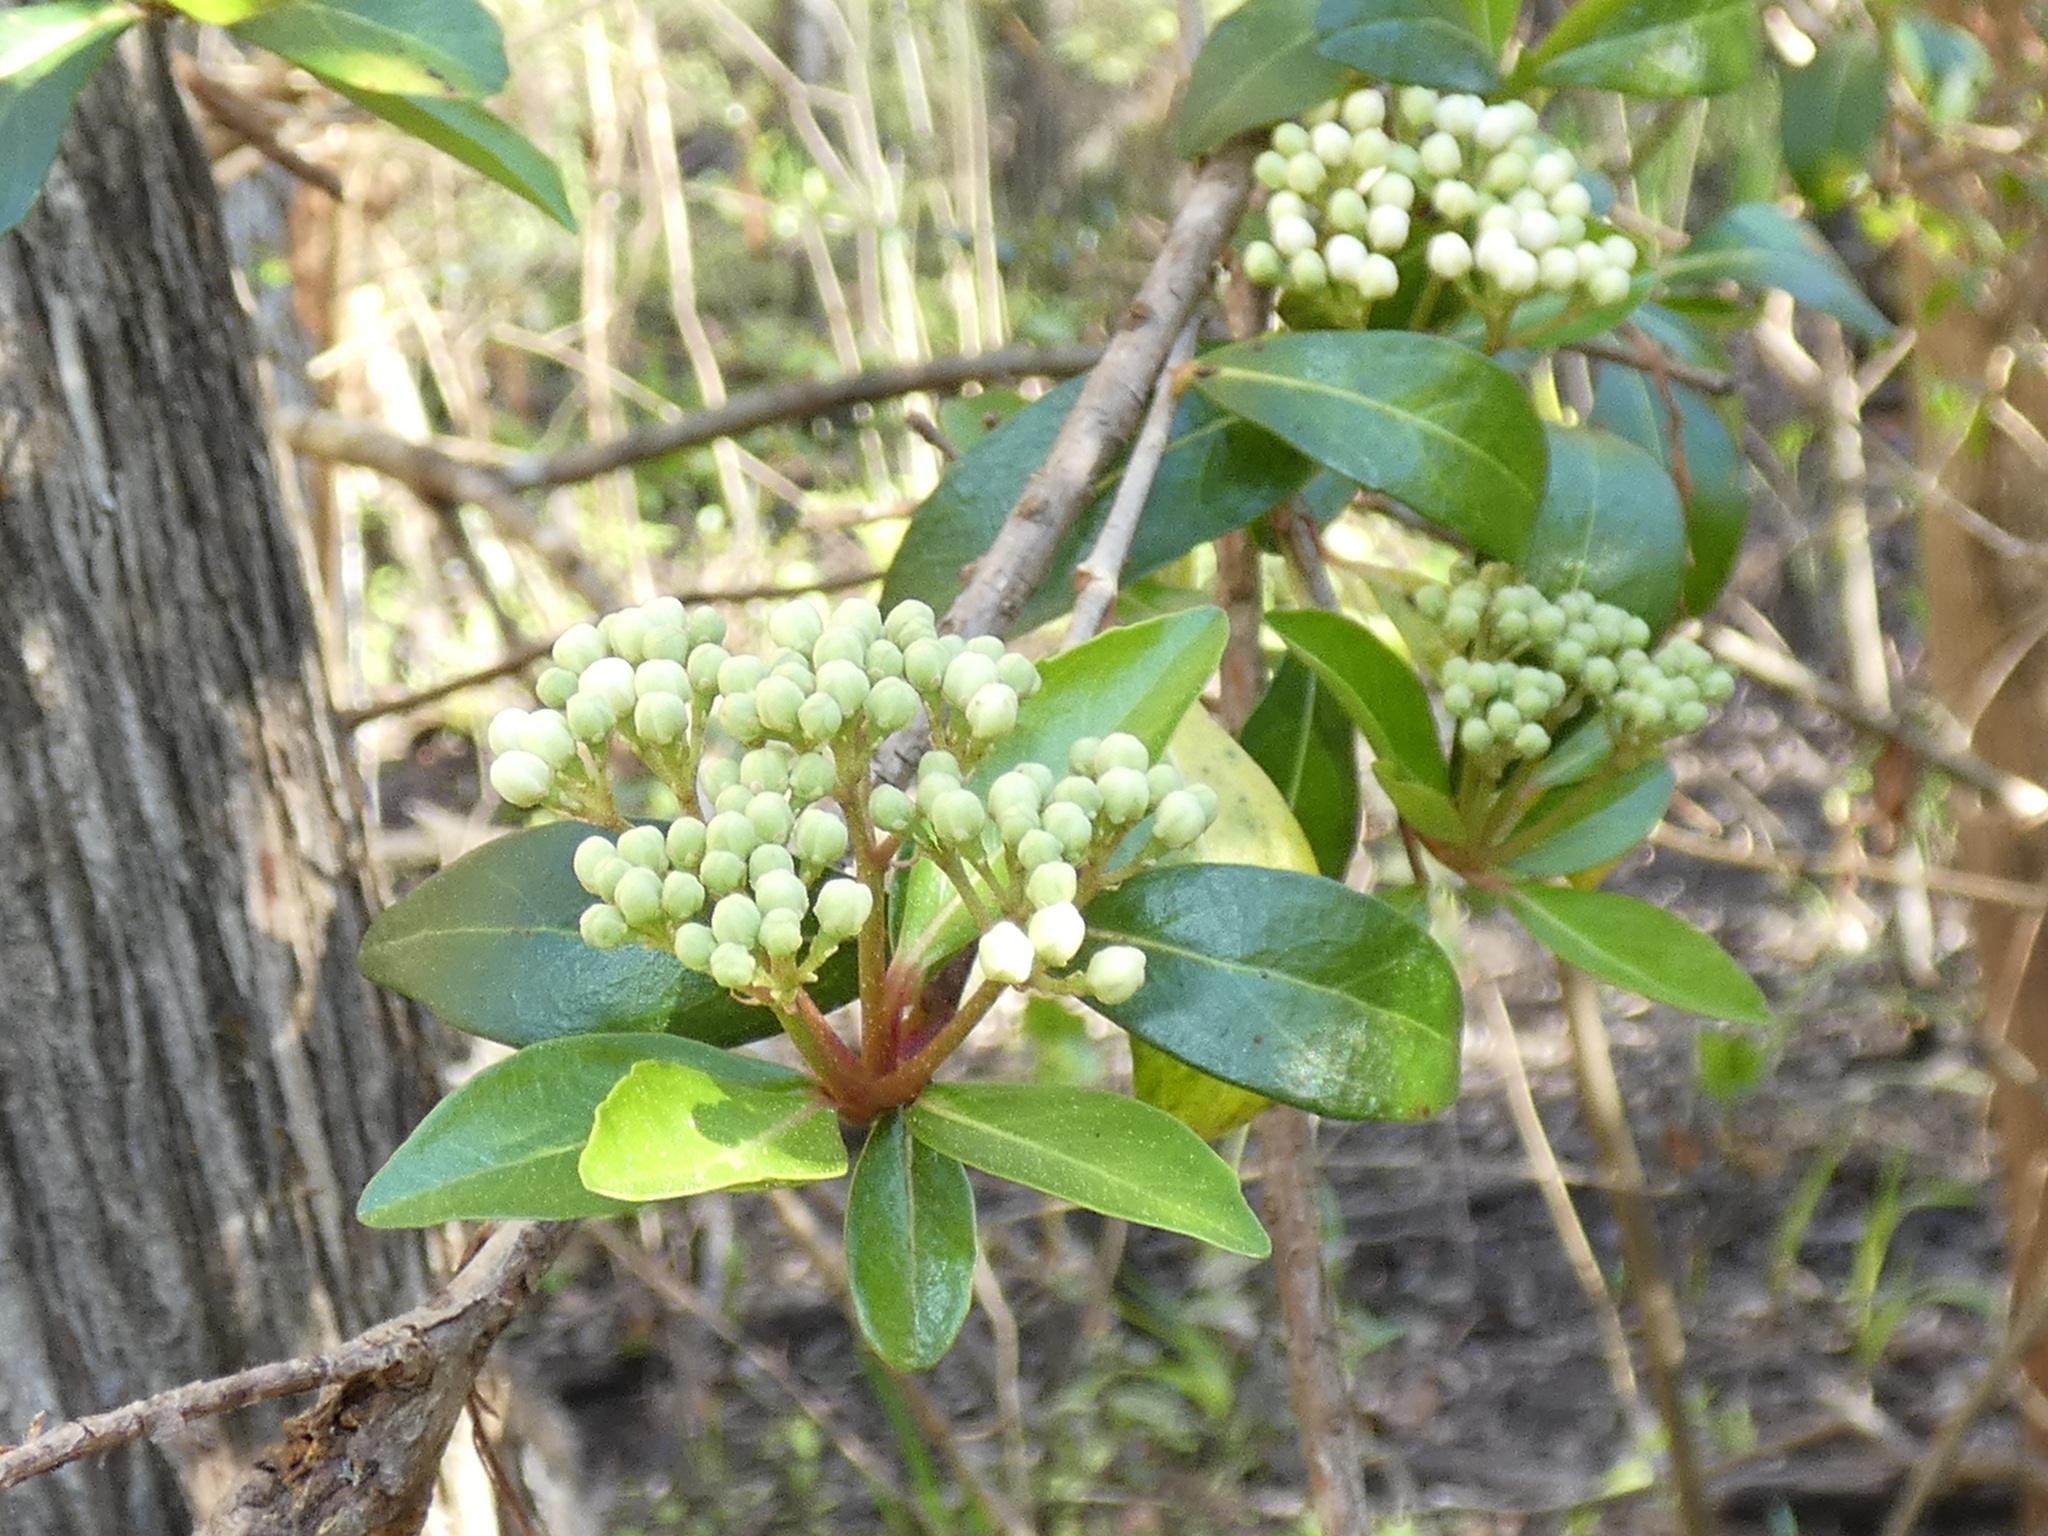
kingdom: Plantae
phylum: Tracheophyta
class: Magnoliopsida
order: Dipsacales
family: Viburnaceae
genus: Viburnum
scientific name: Viburnum obovatum
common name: Walter's viburnum
